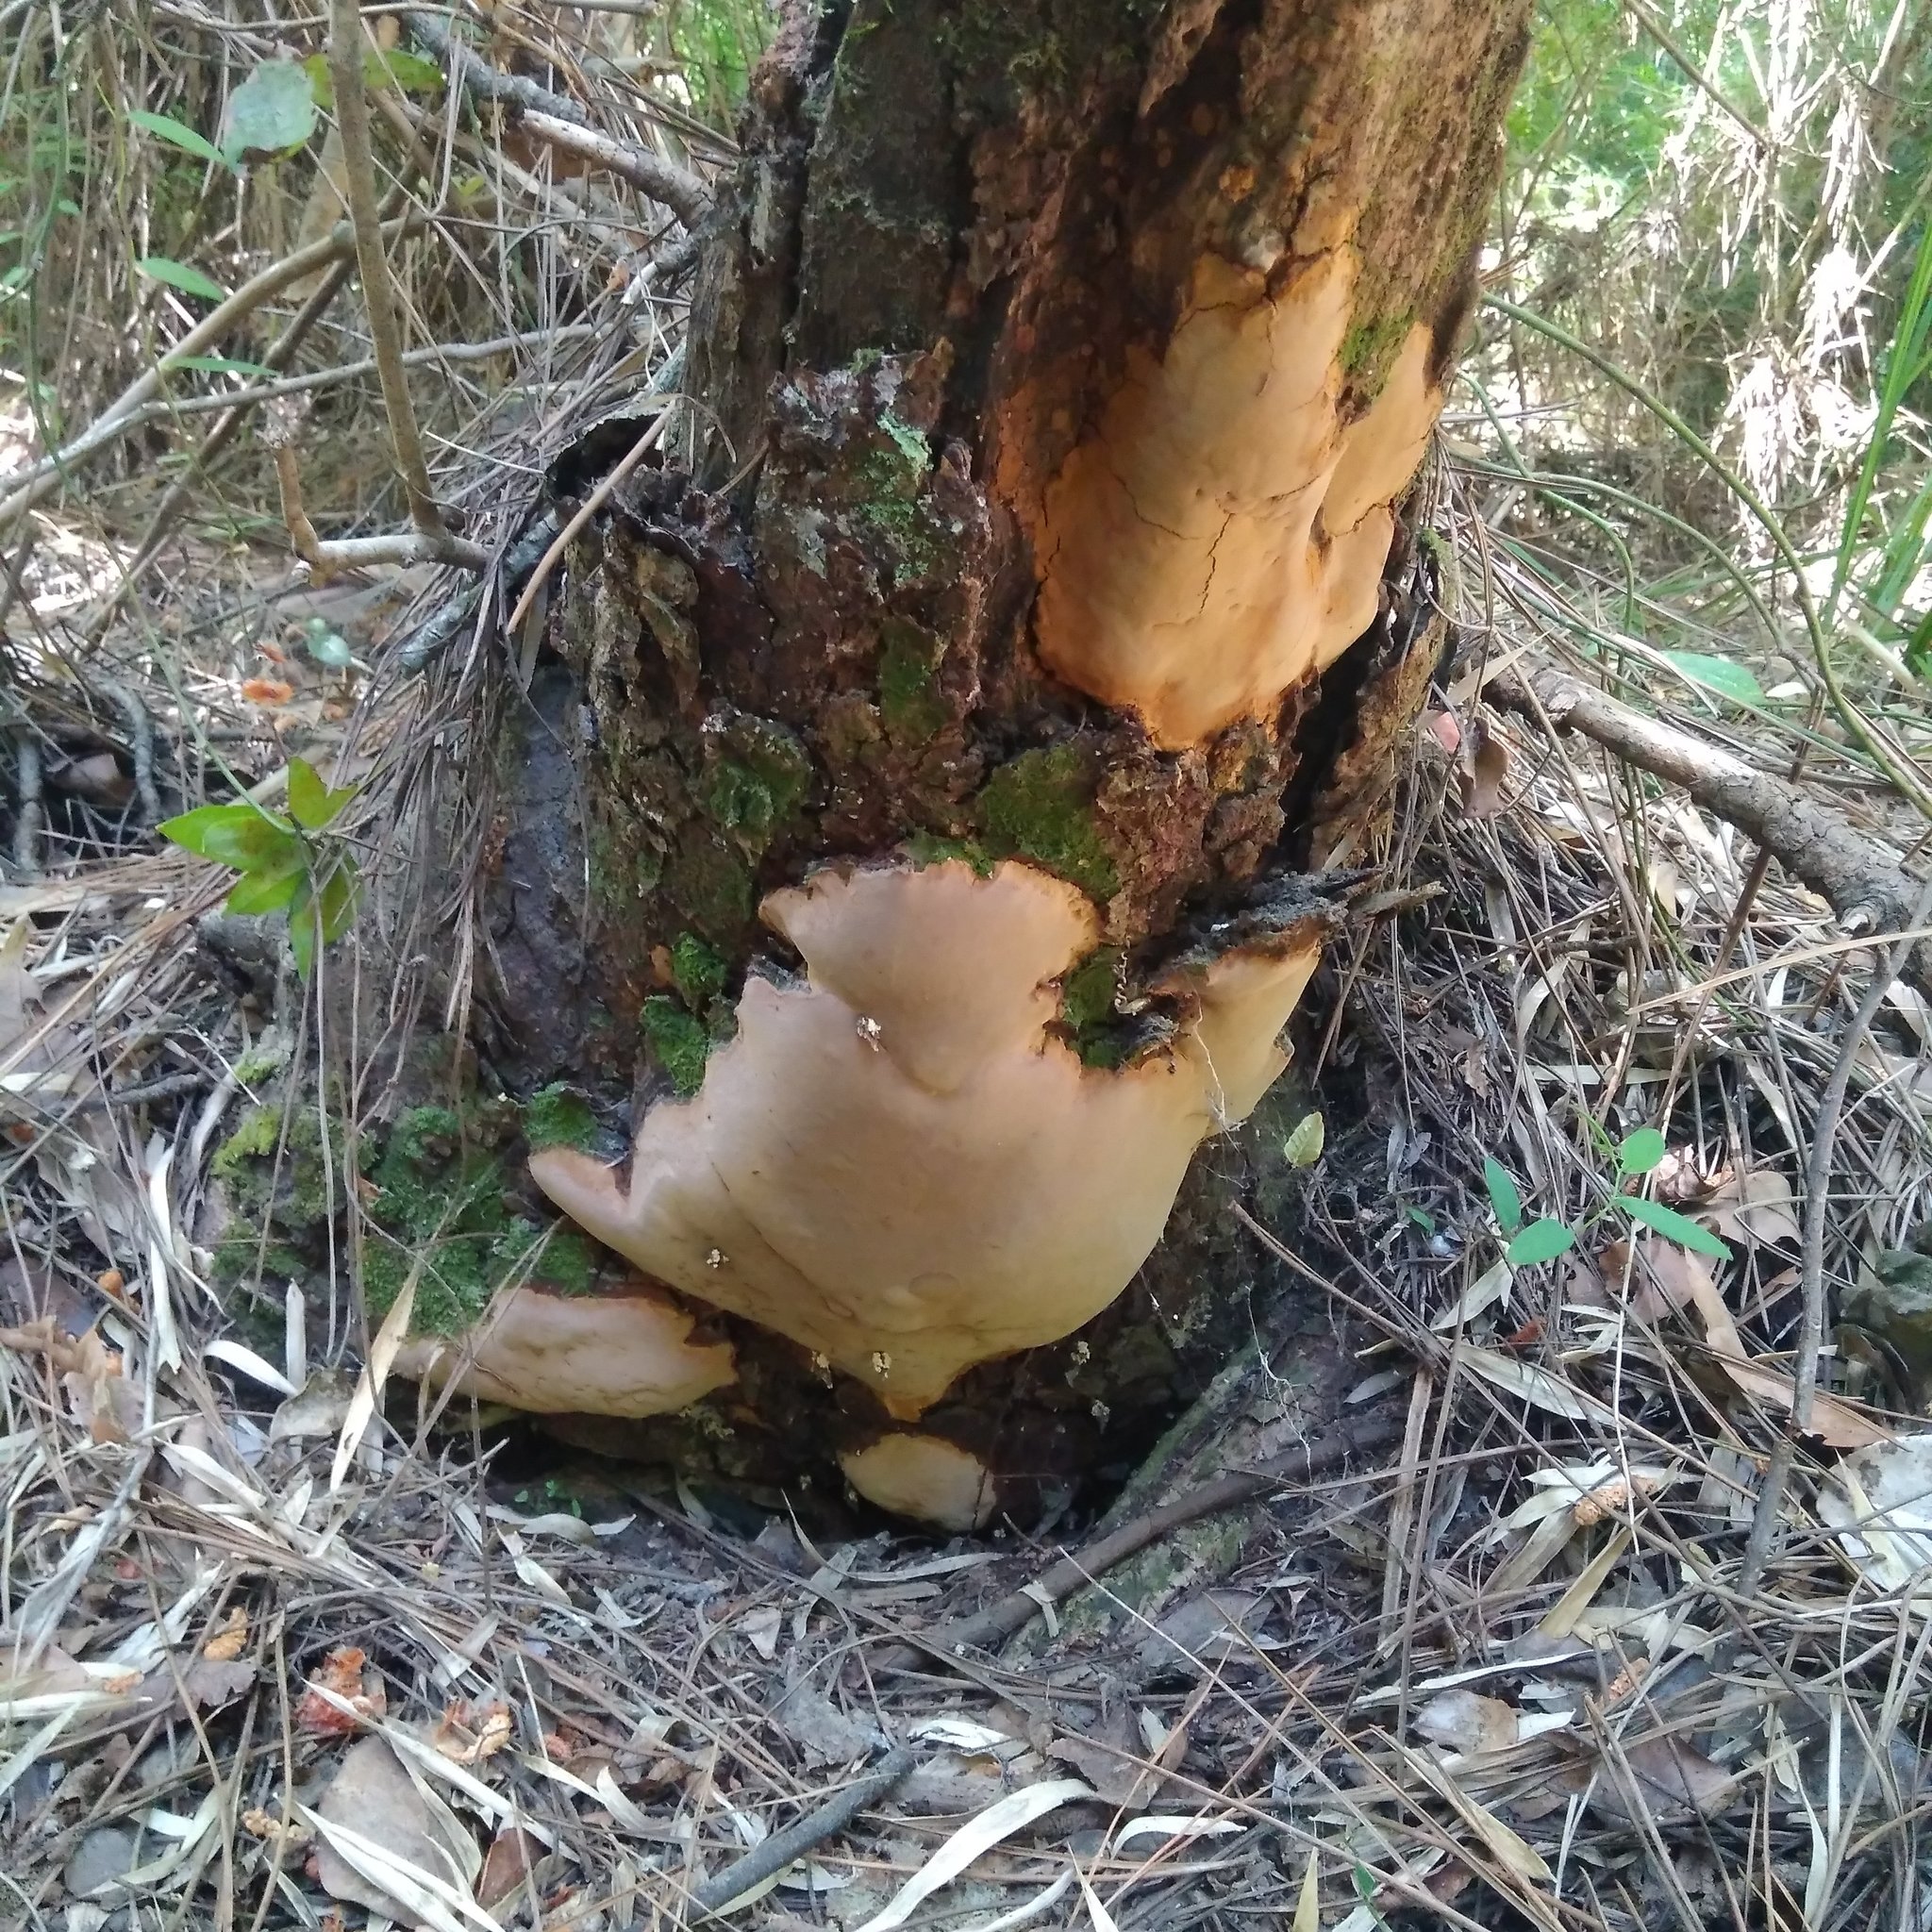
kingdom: Fungi
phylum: Basidiomycota
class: Agaricomycetes
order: Hymenochaetales
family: Hymenochaetaceae
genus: Fomitiporia
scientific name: Fomitiporia chilensis
